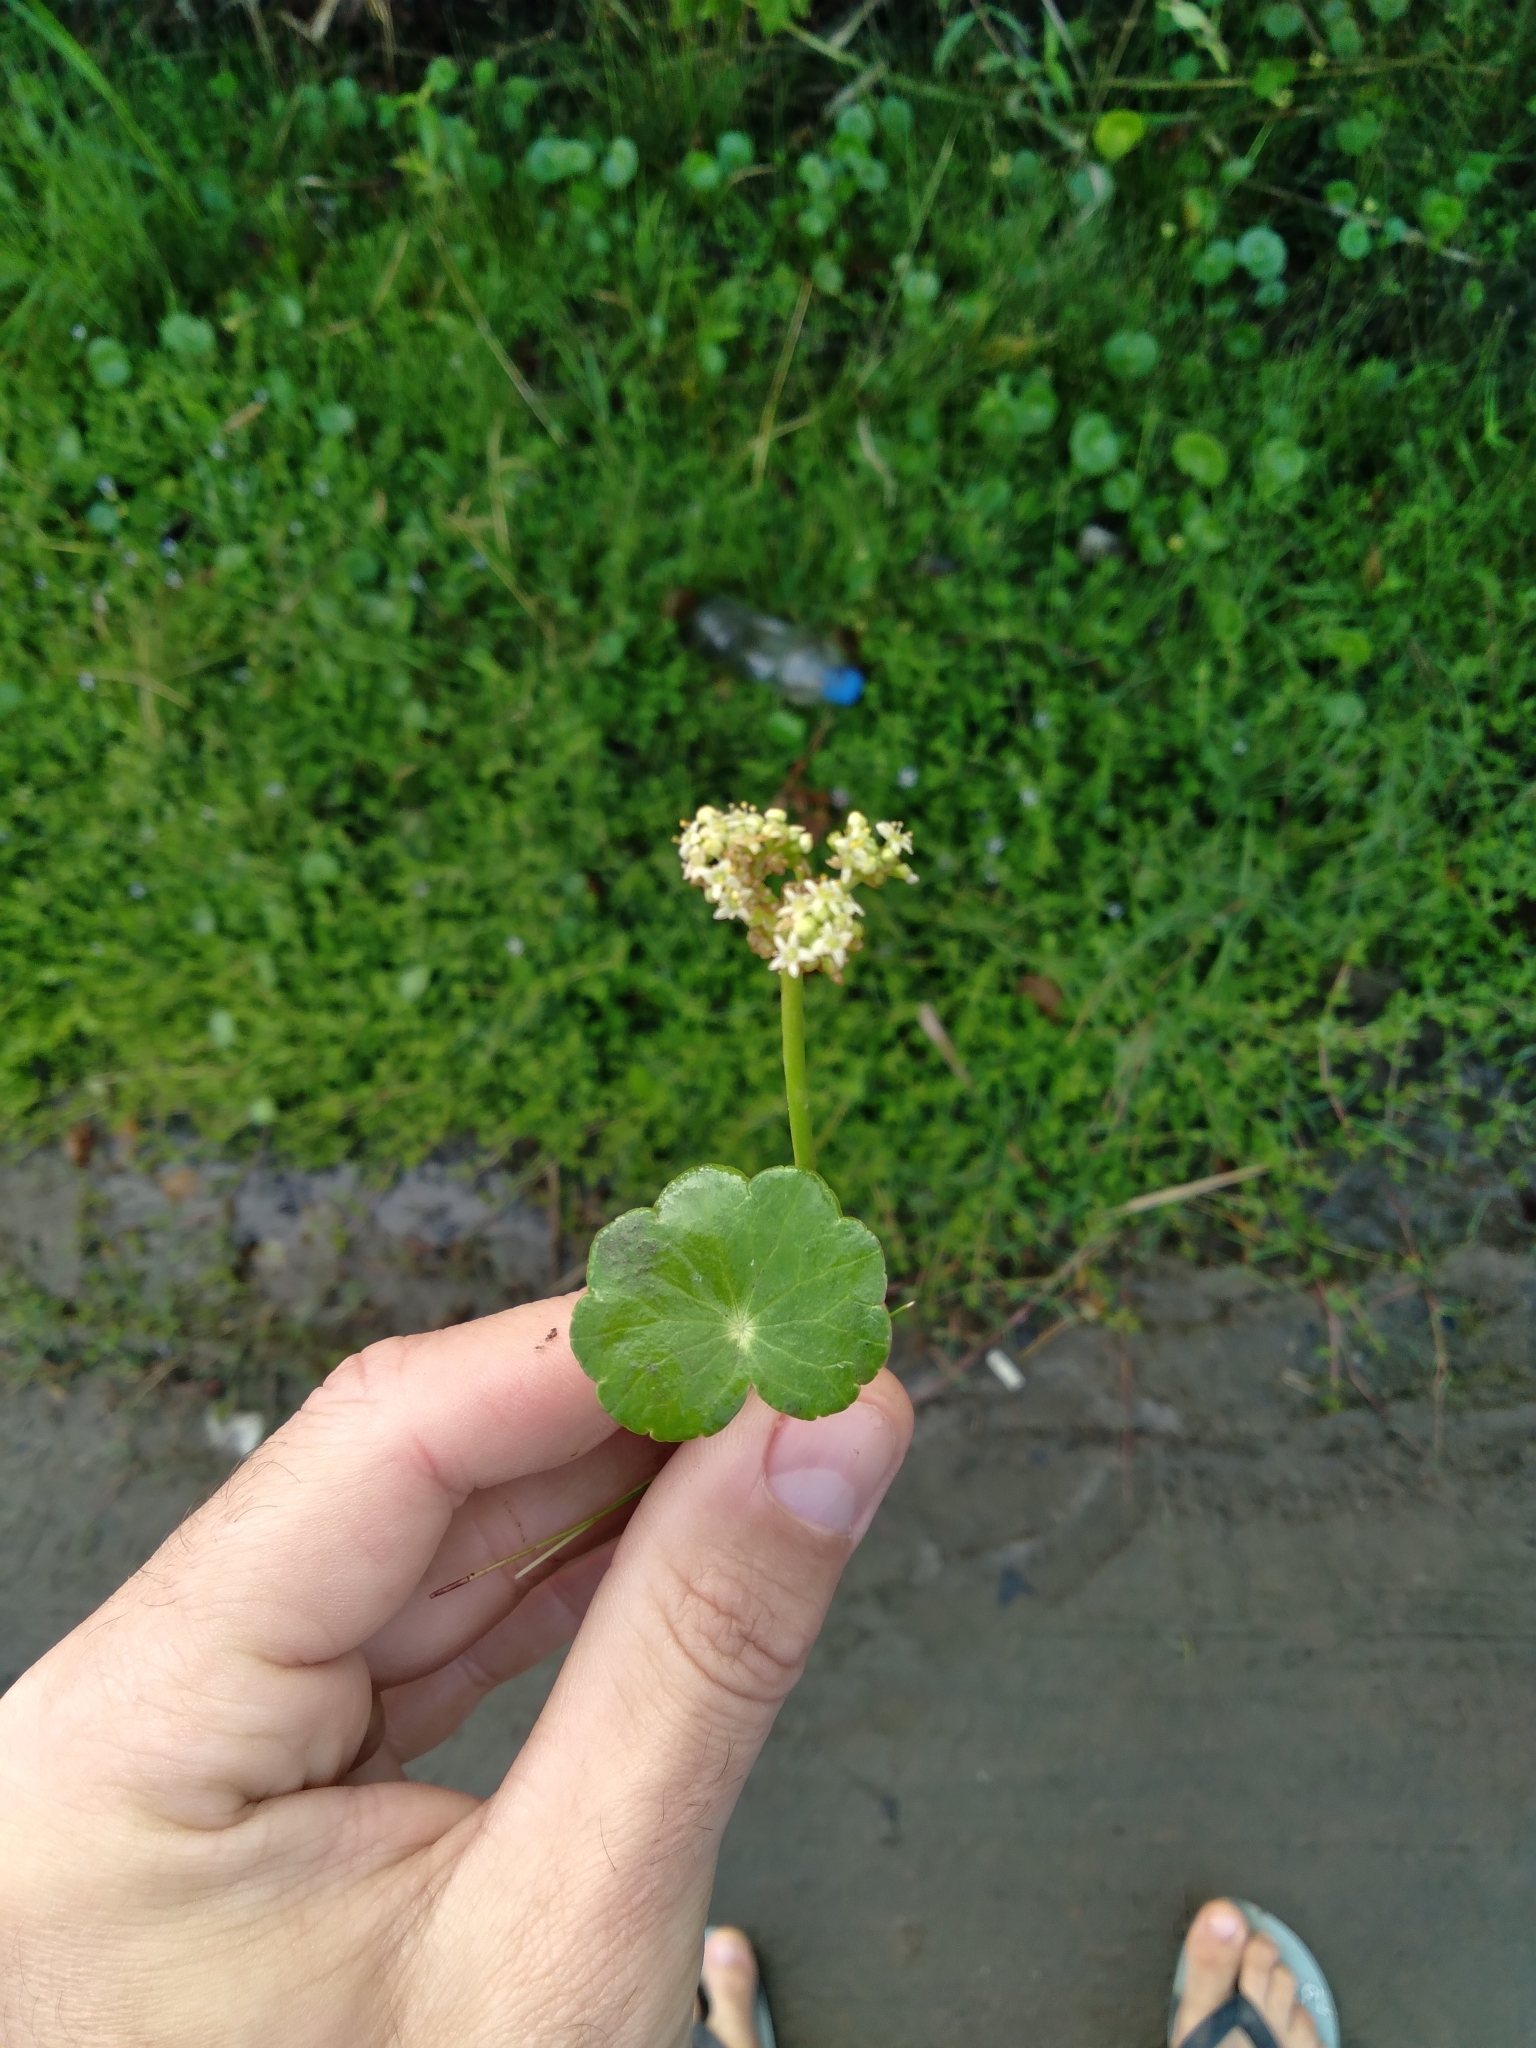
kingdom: Plantae
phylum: Tracheophyta
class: Magnoliopsida
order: Apiales
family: Araliaceae
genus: Hydrocotyle
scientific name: Hydrocotyle bonariensis
